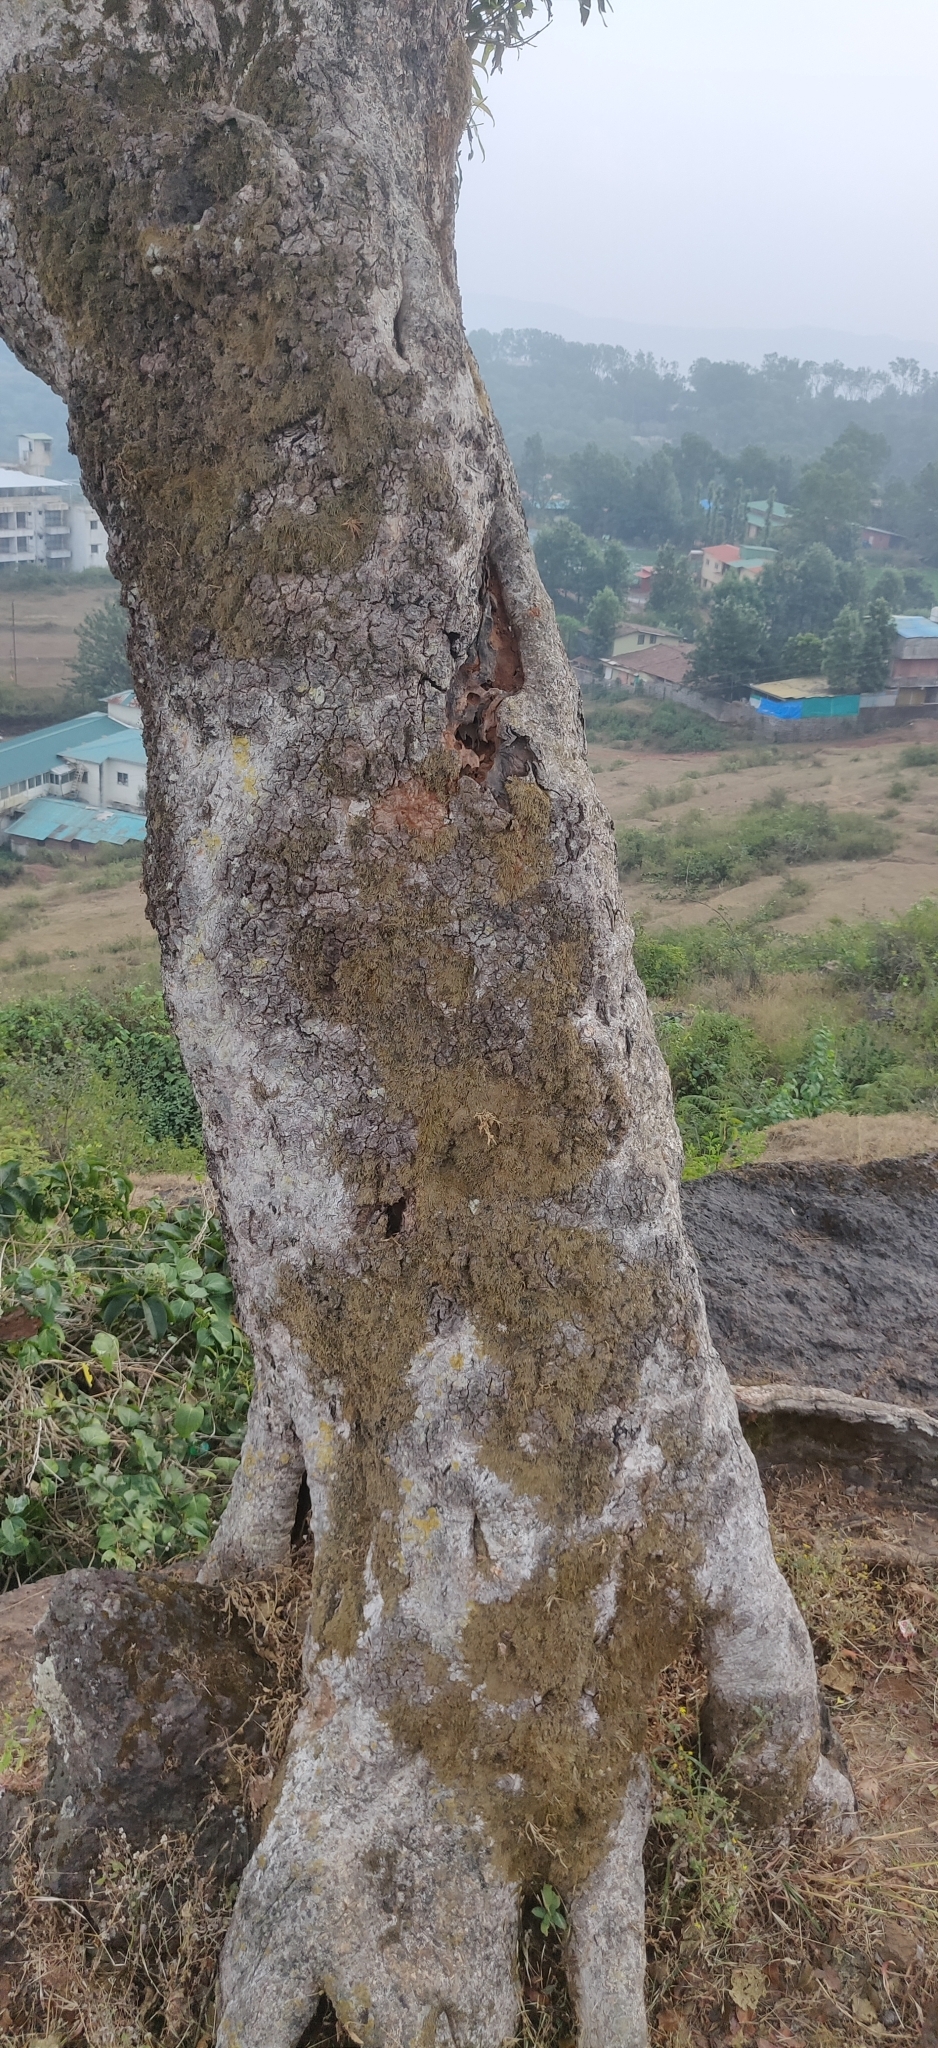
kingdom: Plantae
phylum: Tracheophyta
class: Magnoliopsida
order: Myrtales
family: Myrtaceae
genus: Syzygium
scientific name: Syzygium cumini
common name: Java plum
